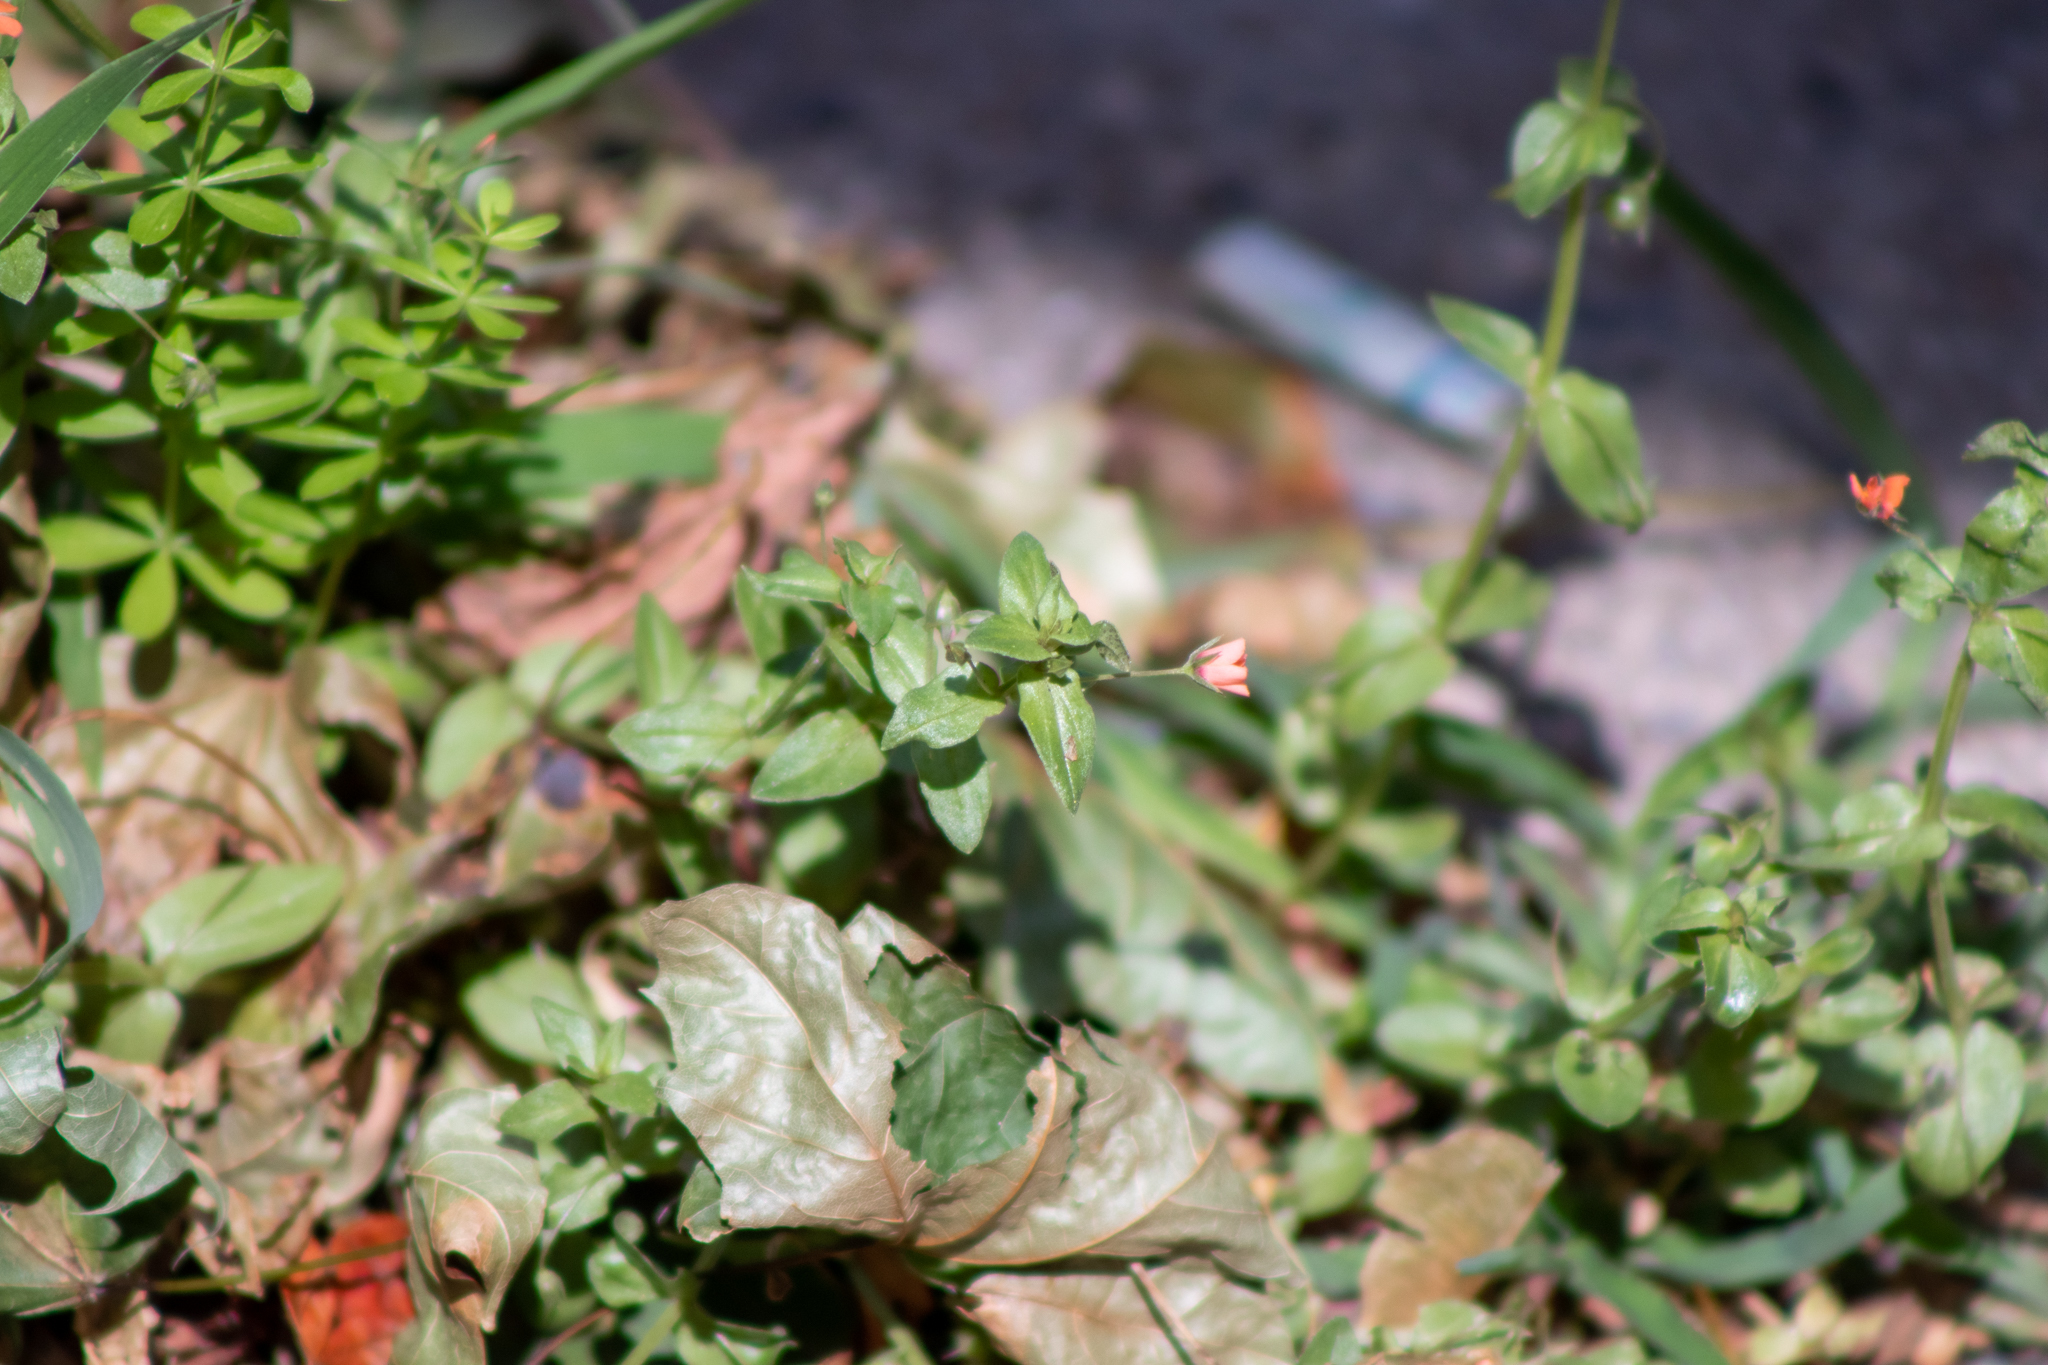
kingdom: Plantae
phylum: Tracheophyta
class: Magnoliopsida
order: Ericales
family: Primulaceae
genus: Lysimachia
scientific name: Lysimachia arvensis
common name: Scarlet pimpernel
